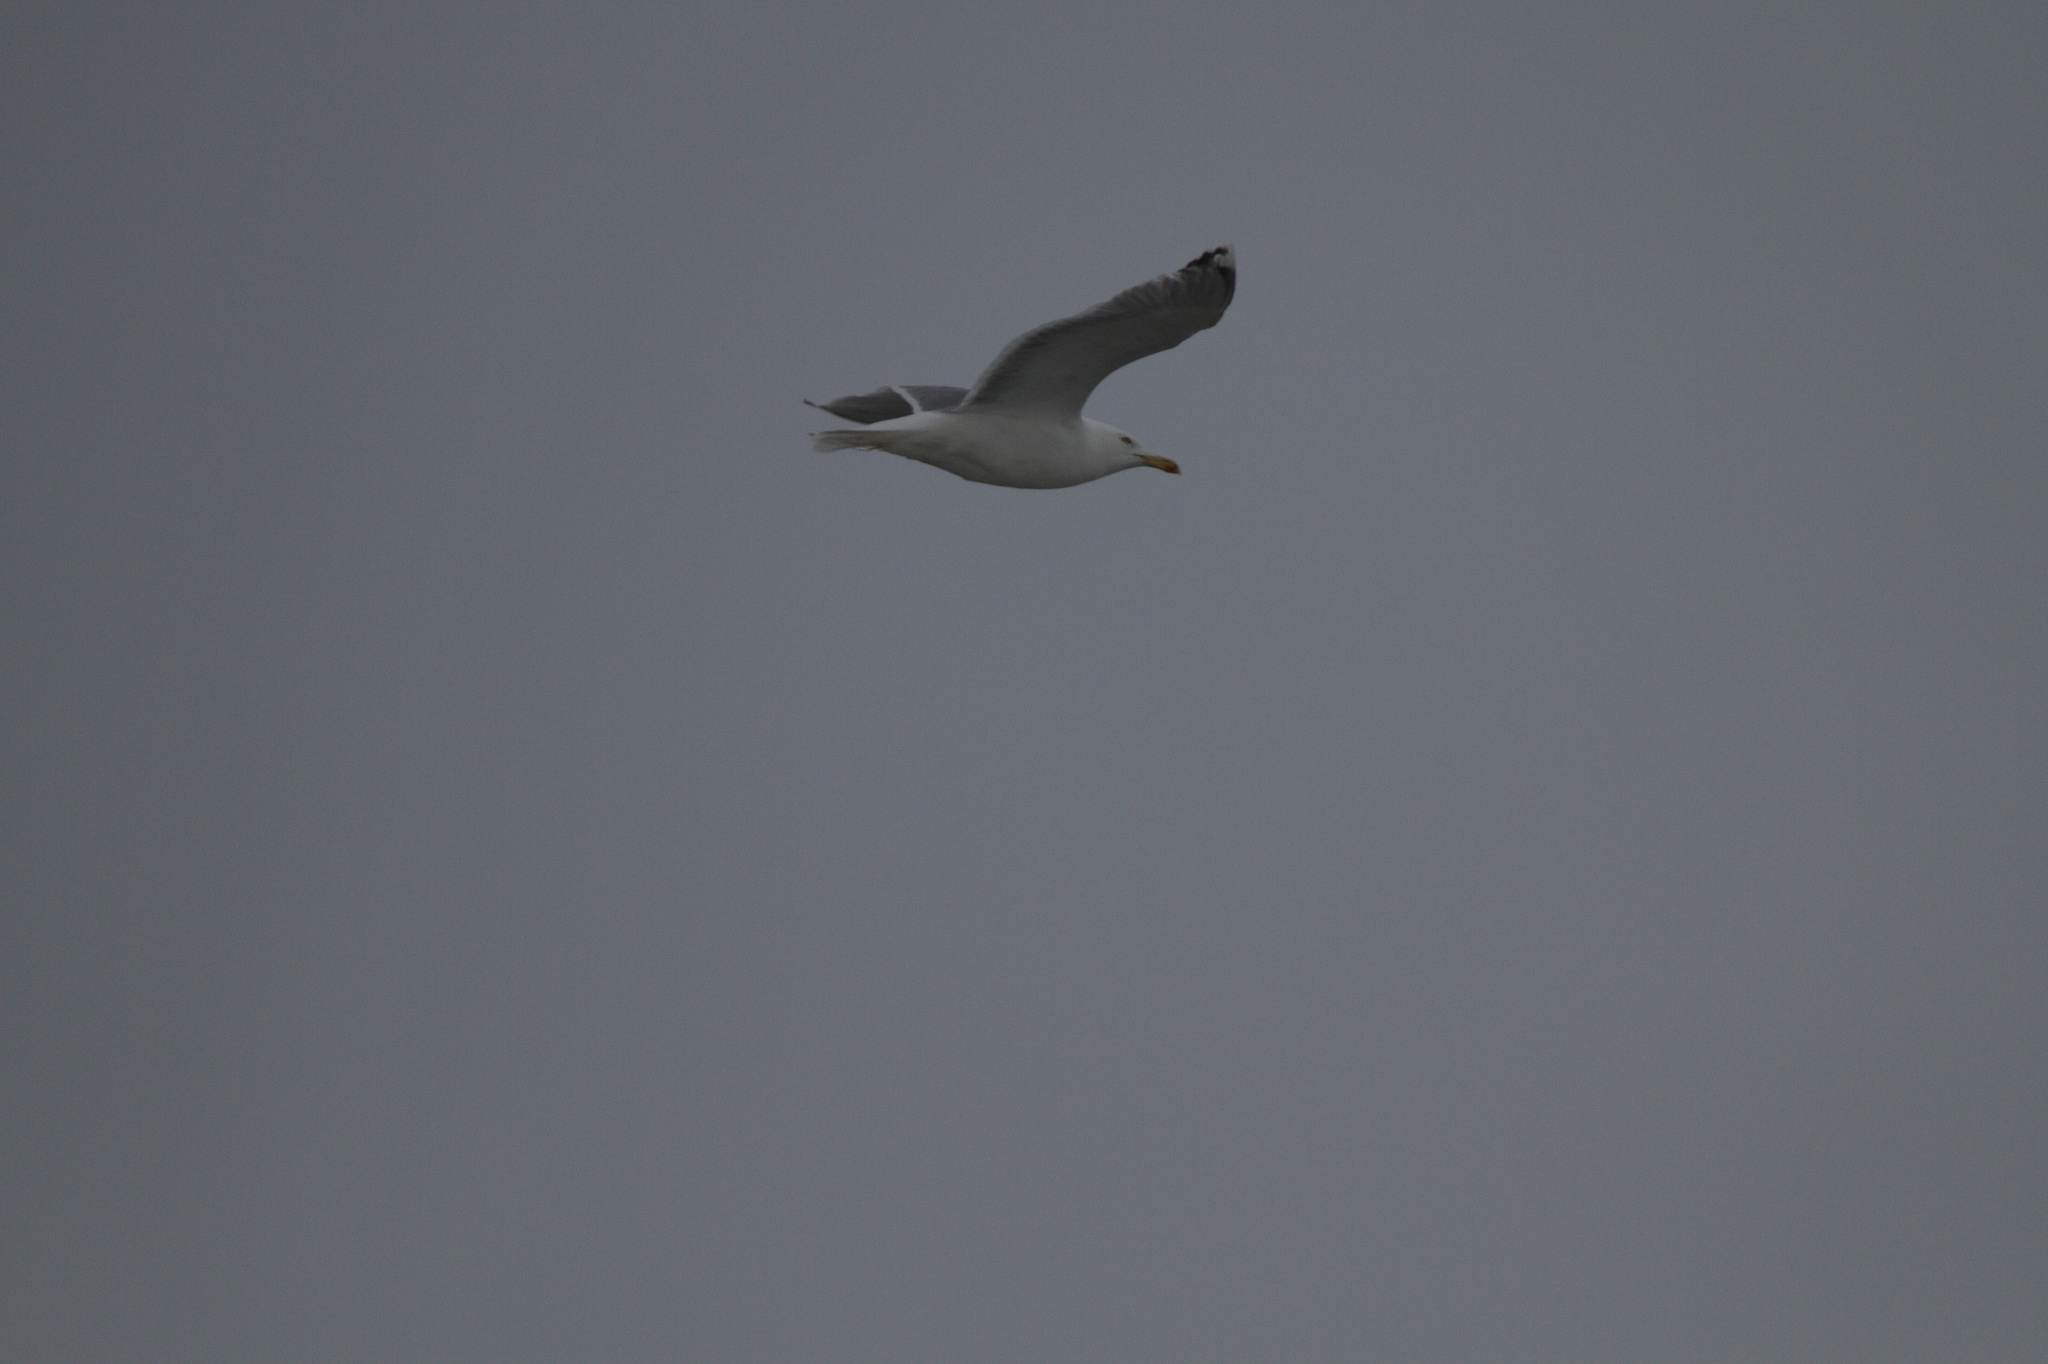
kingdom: Animalia
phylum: Chordata
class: Aves
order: Charadriiformes
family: Laridae
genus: Larus
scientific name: Larus argentatus
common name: Herring gull
